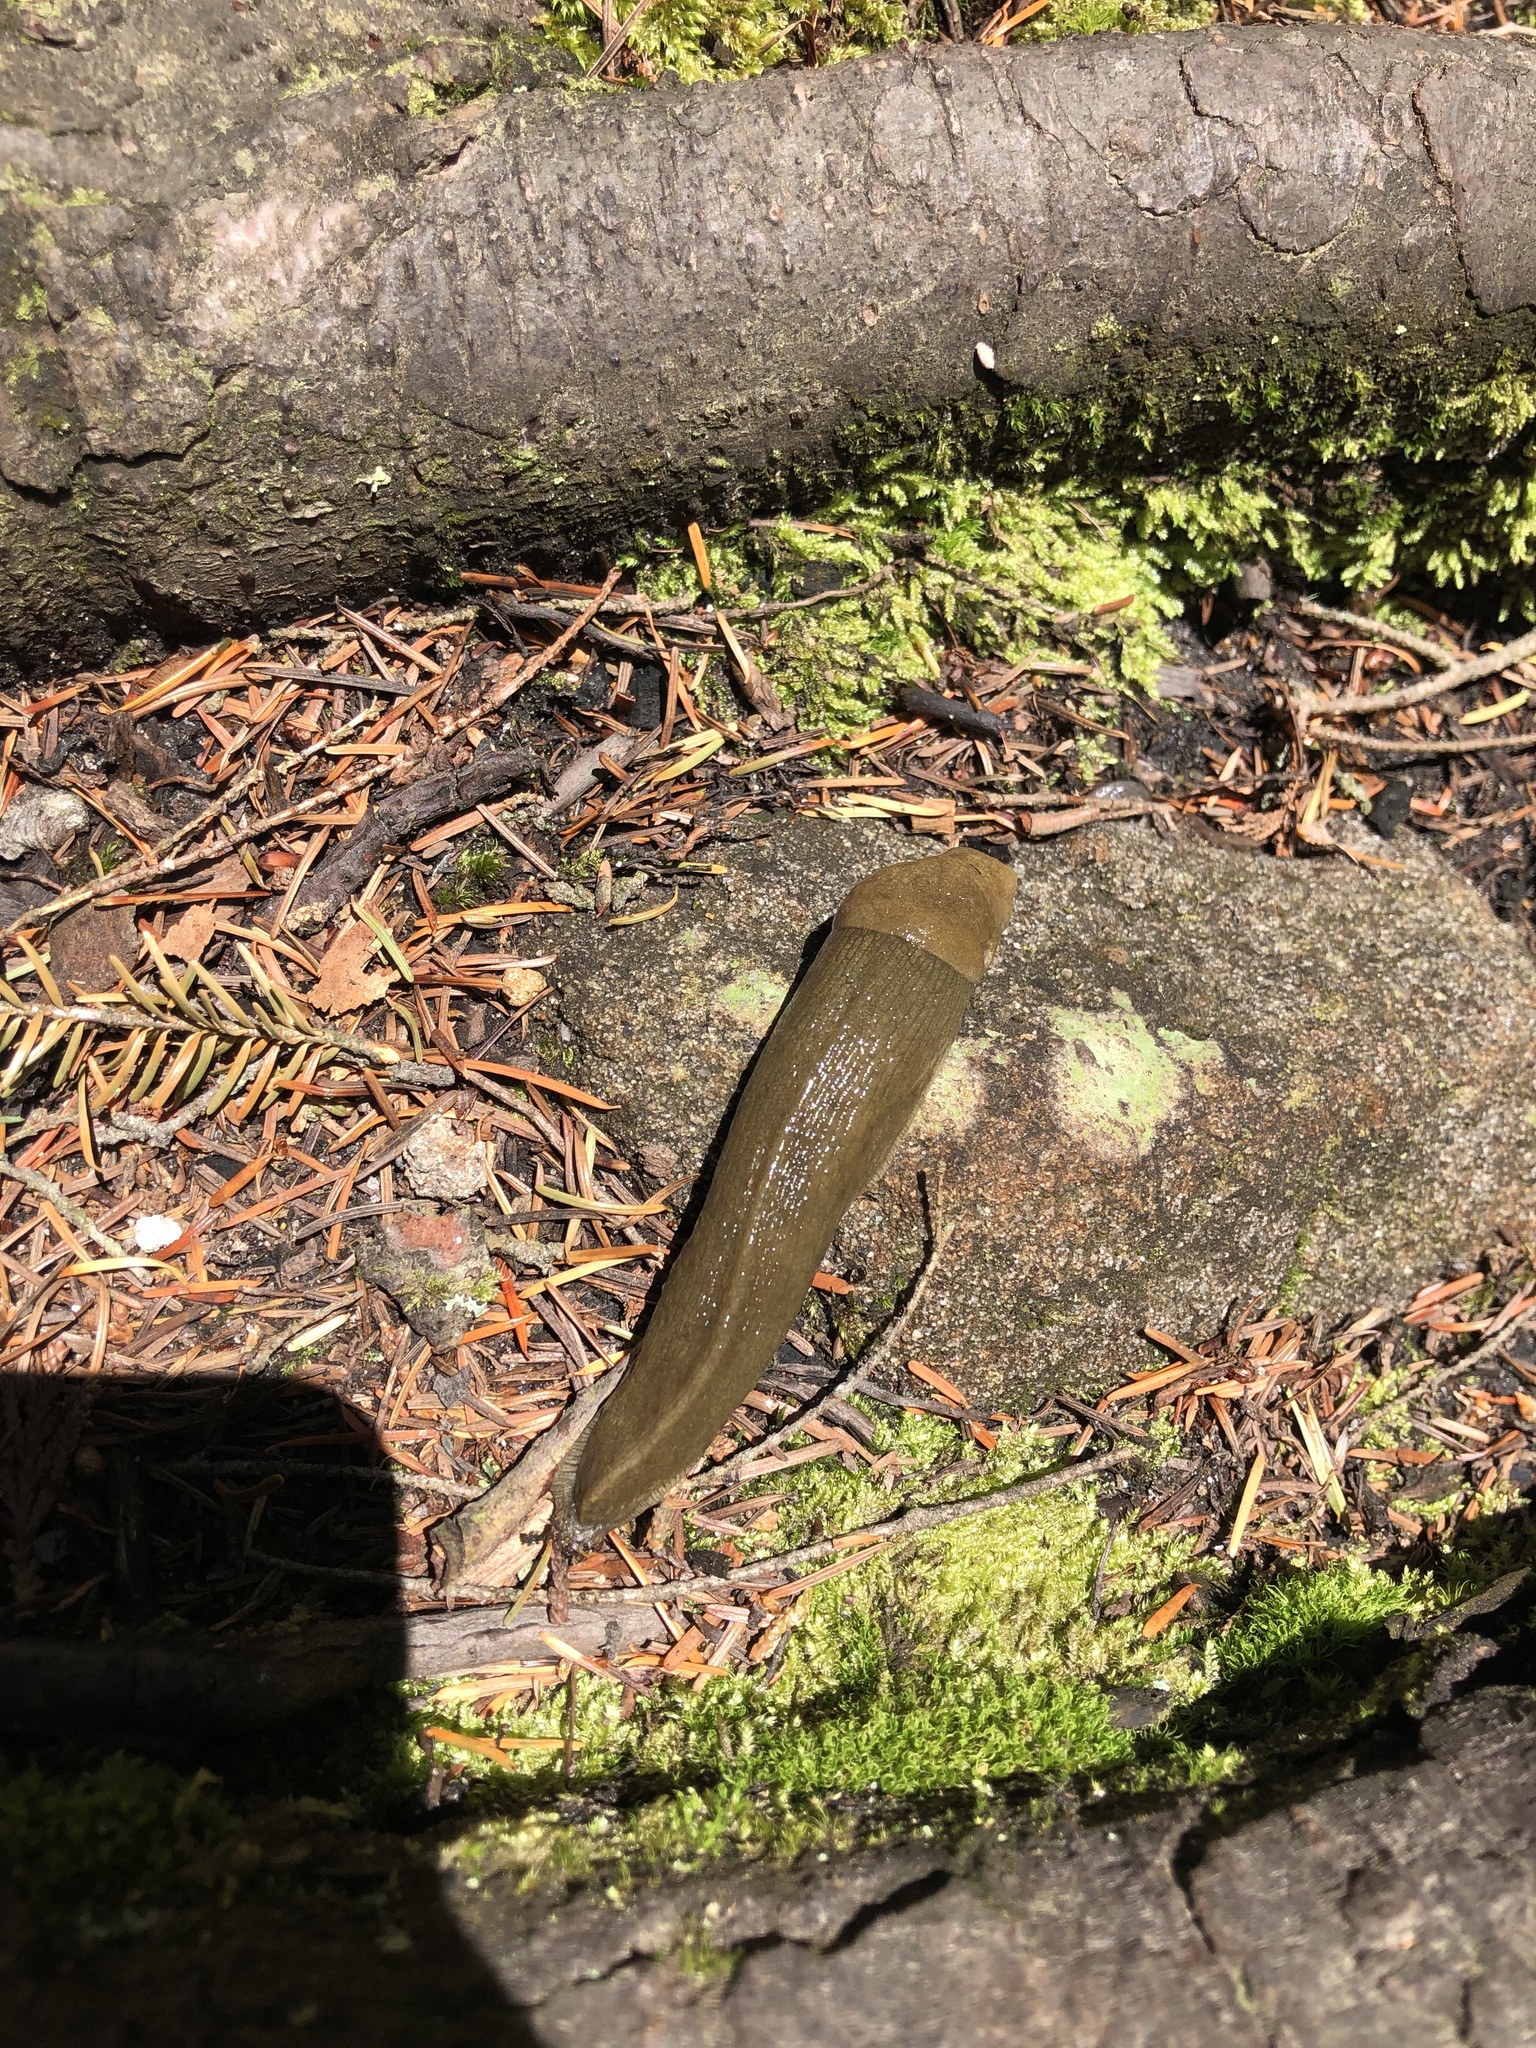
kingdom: Animalia
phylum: Mollusca
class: Gastropoda
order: Stylommatophora
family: Ariolimacidae
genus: Ariolimax
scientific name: Ariolimax columbianus
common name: Pacific banana slug
